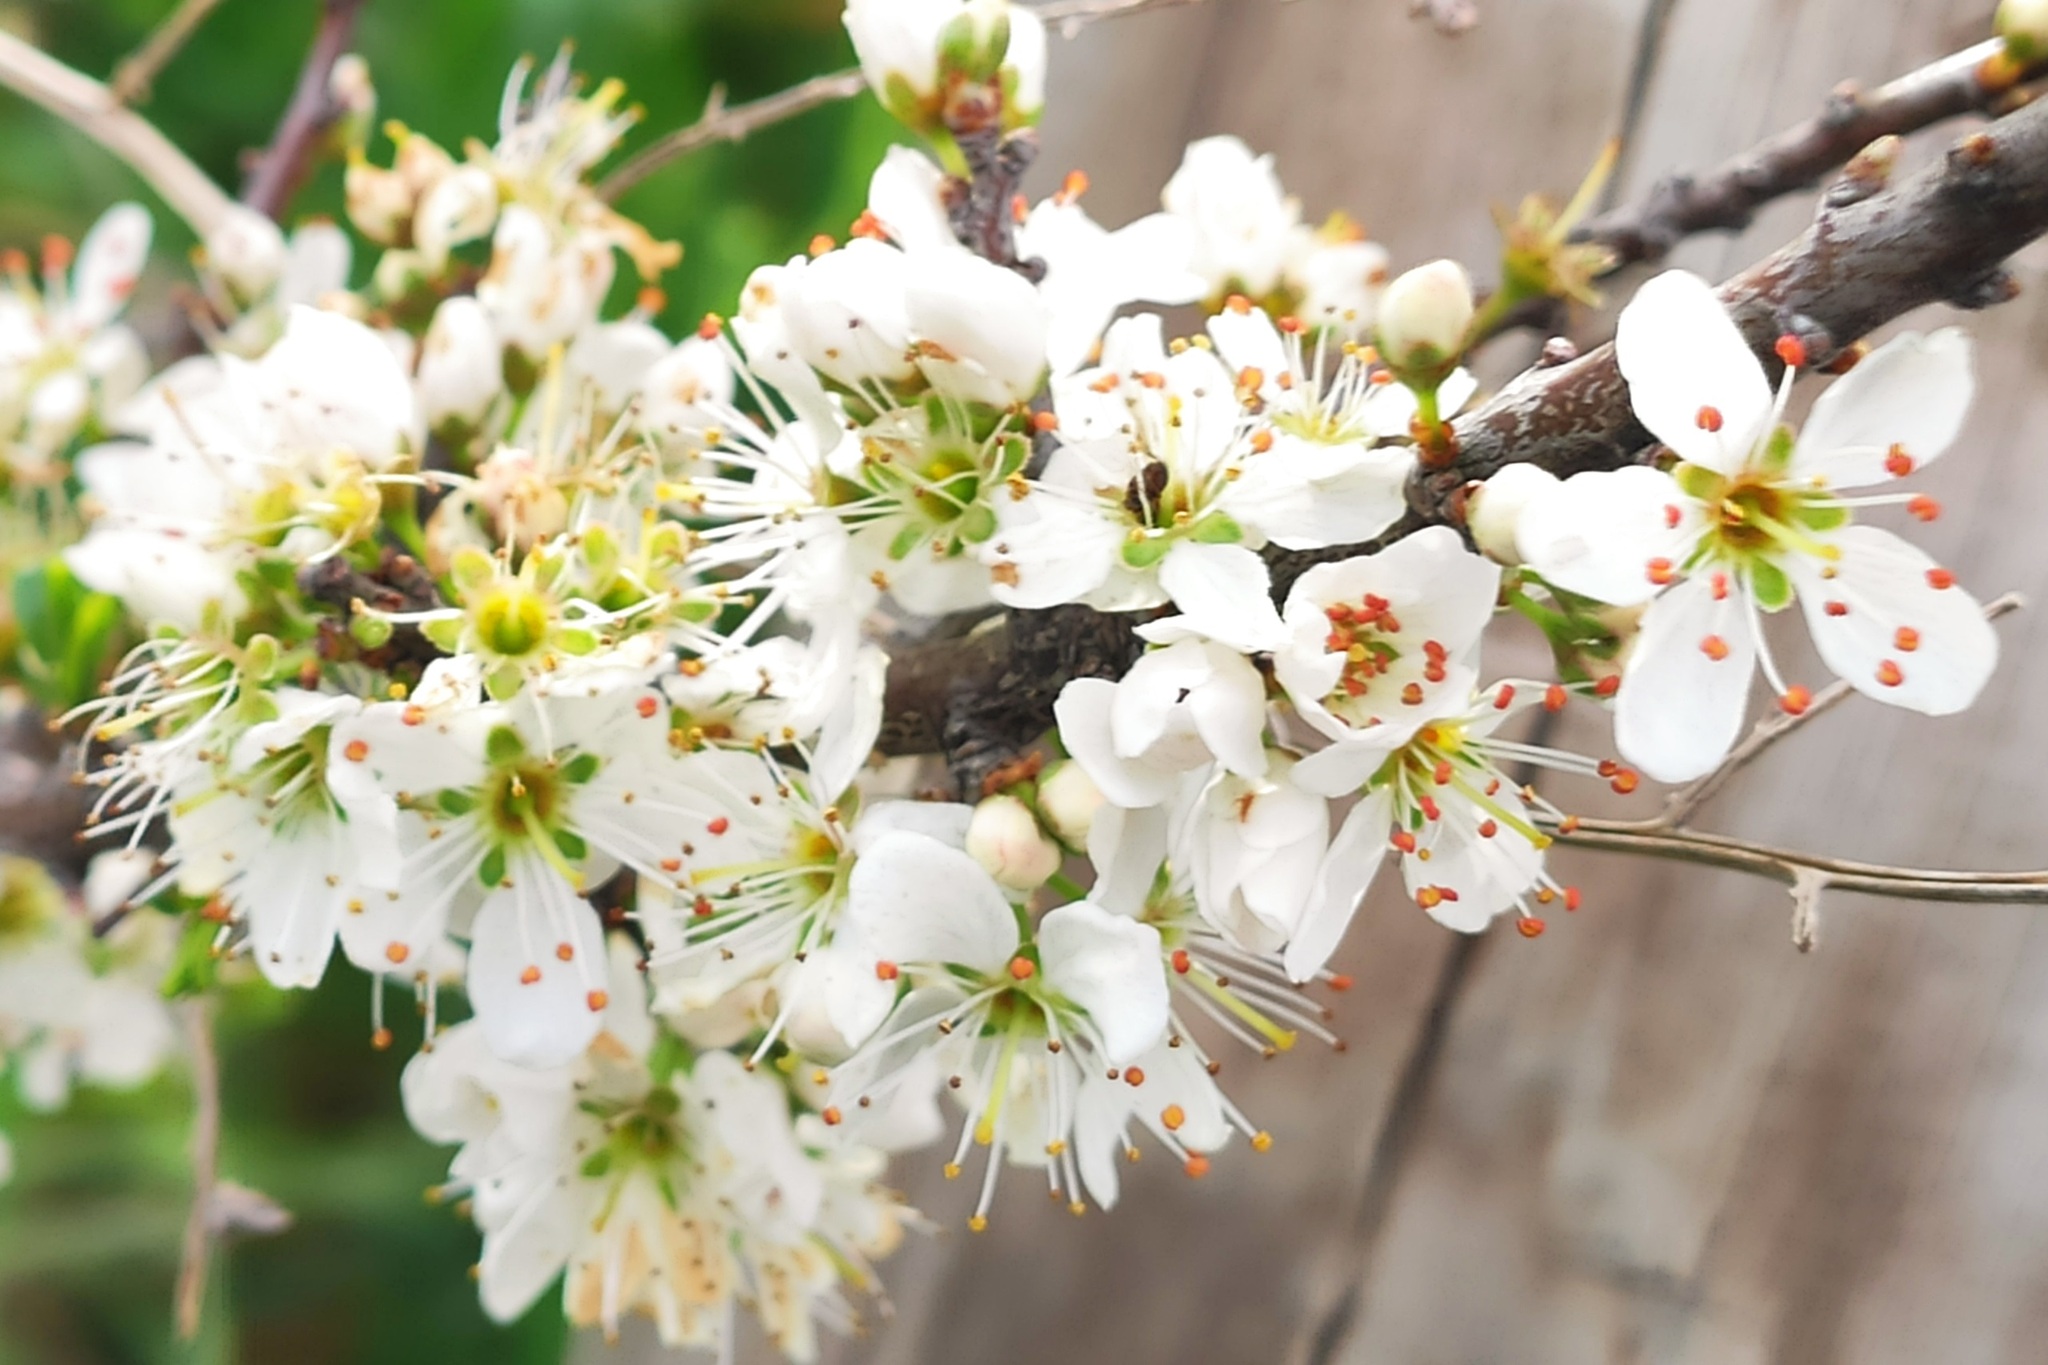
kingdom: Plantae
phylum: Tracheophyta
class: Magnoliopsida
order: Rosales
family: Rosaceae
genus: Prunus
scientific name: Prunus spinosa
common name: Blackthorn
